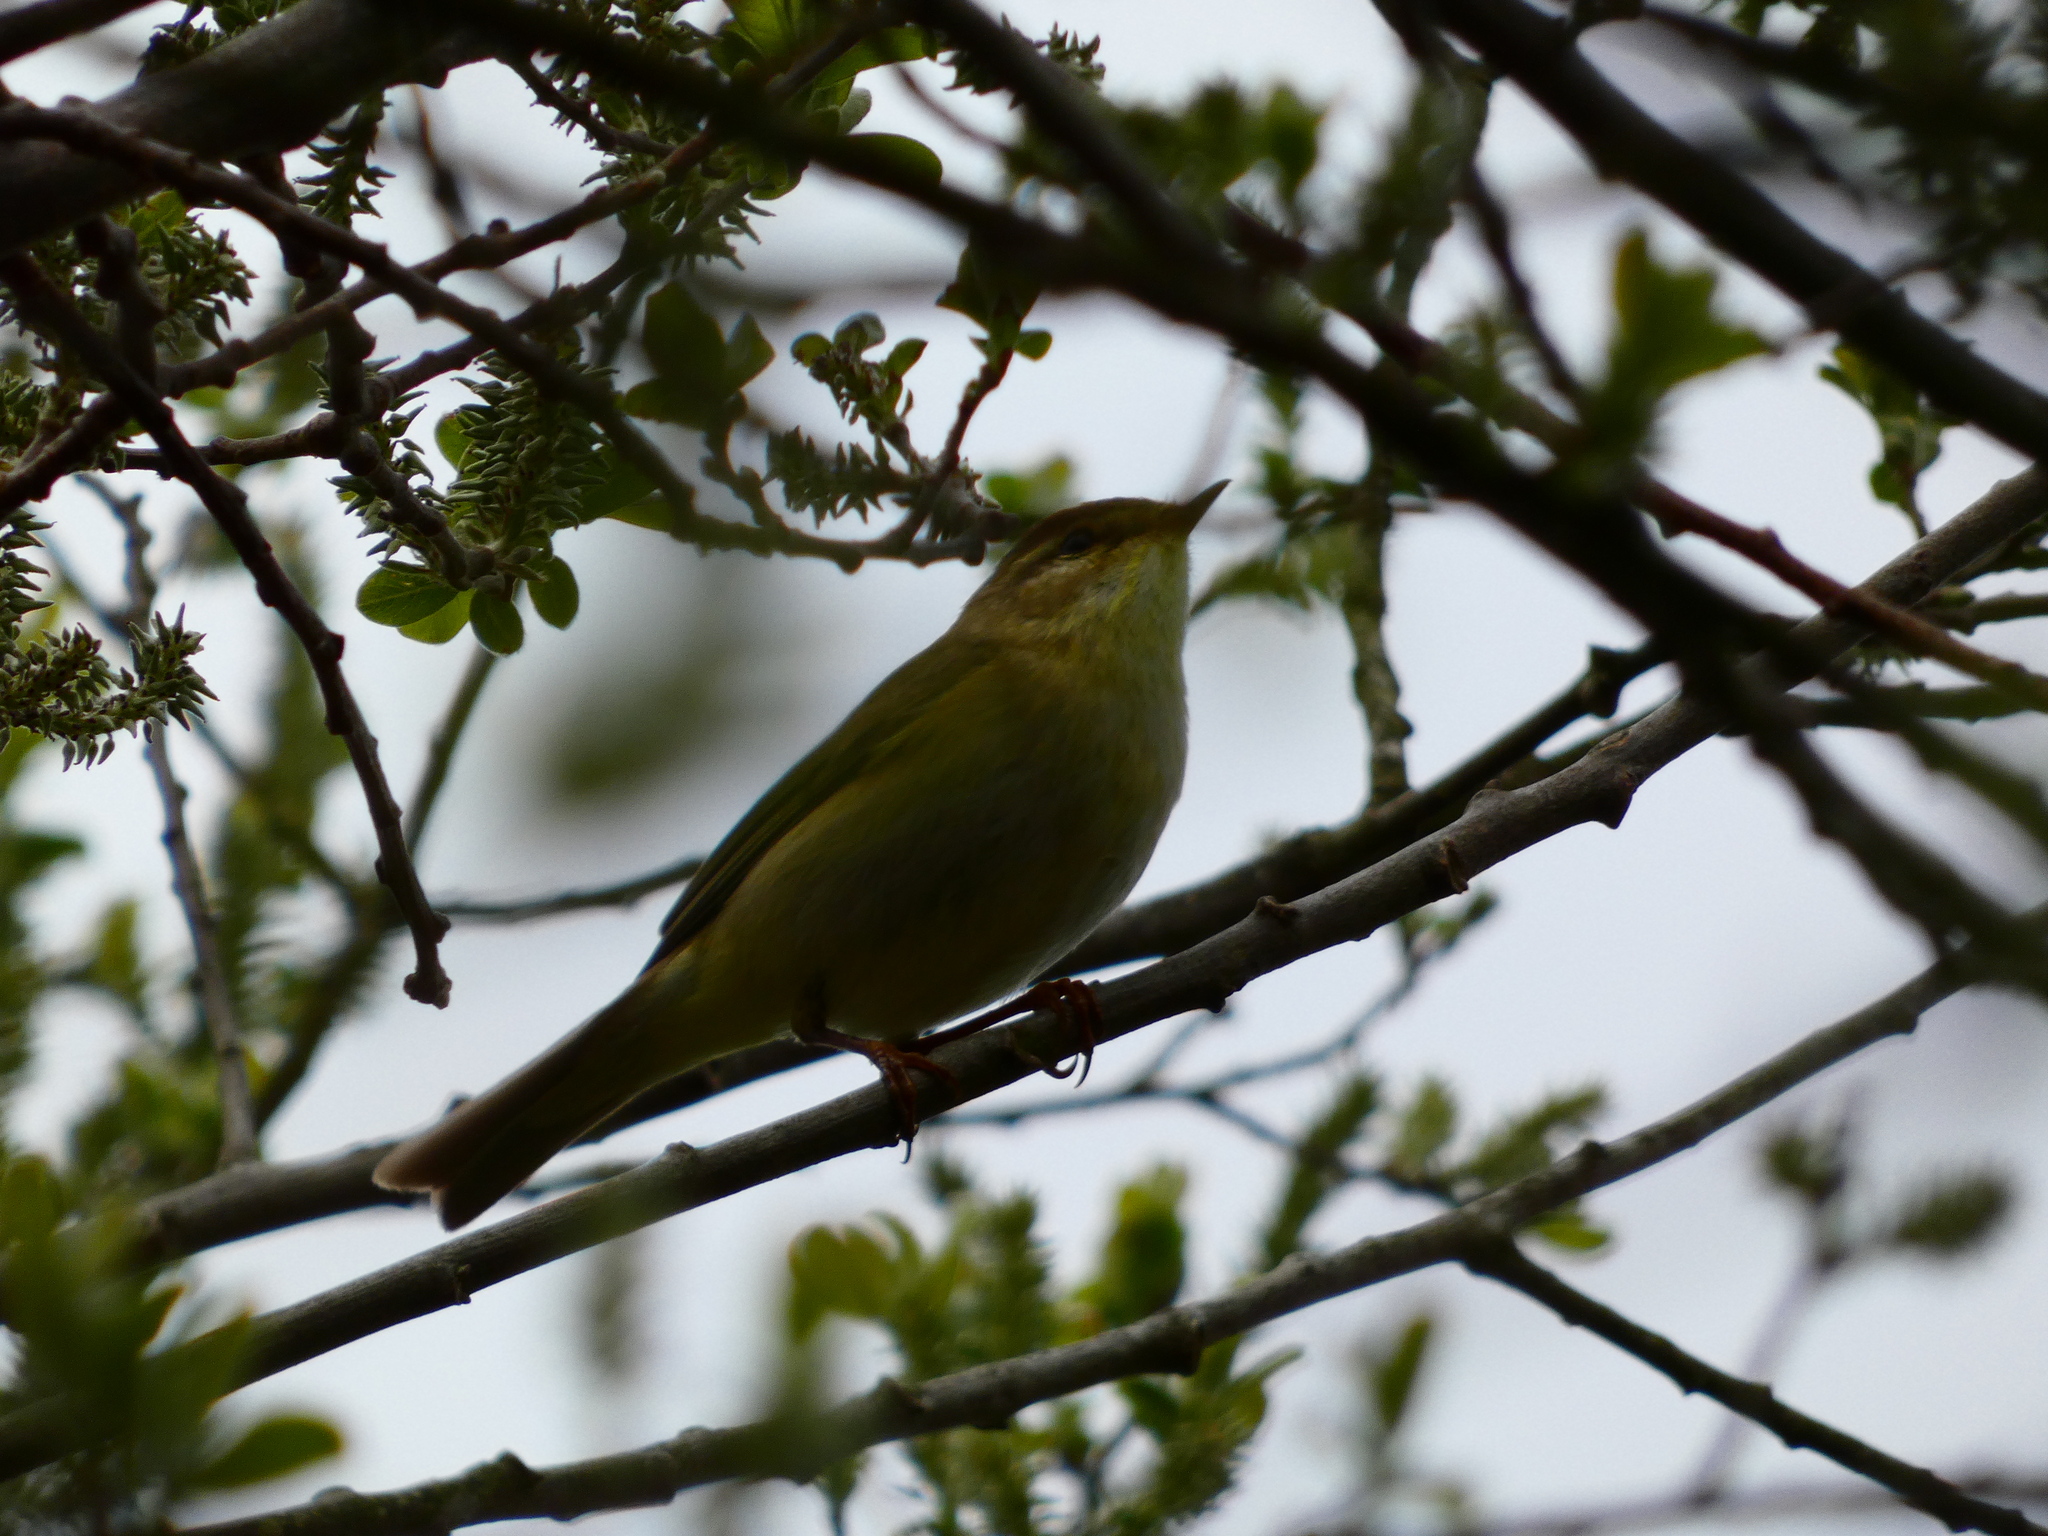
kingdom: Animalia
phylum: Chordata
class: Aves
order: Passeriformes
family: Phylloscopidae
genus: Phylloscopus
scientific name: Phylloscopus trochilus
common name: Willow warbler
